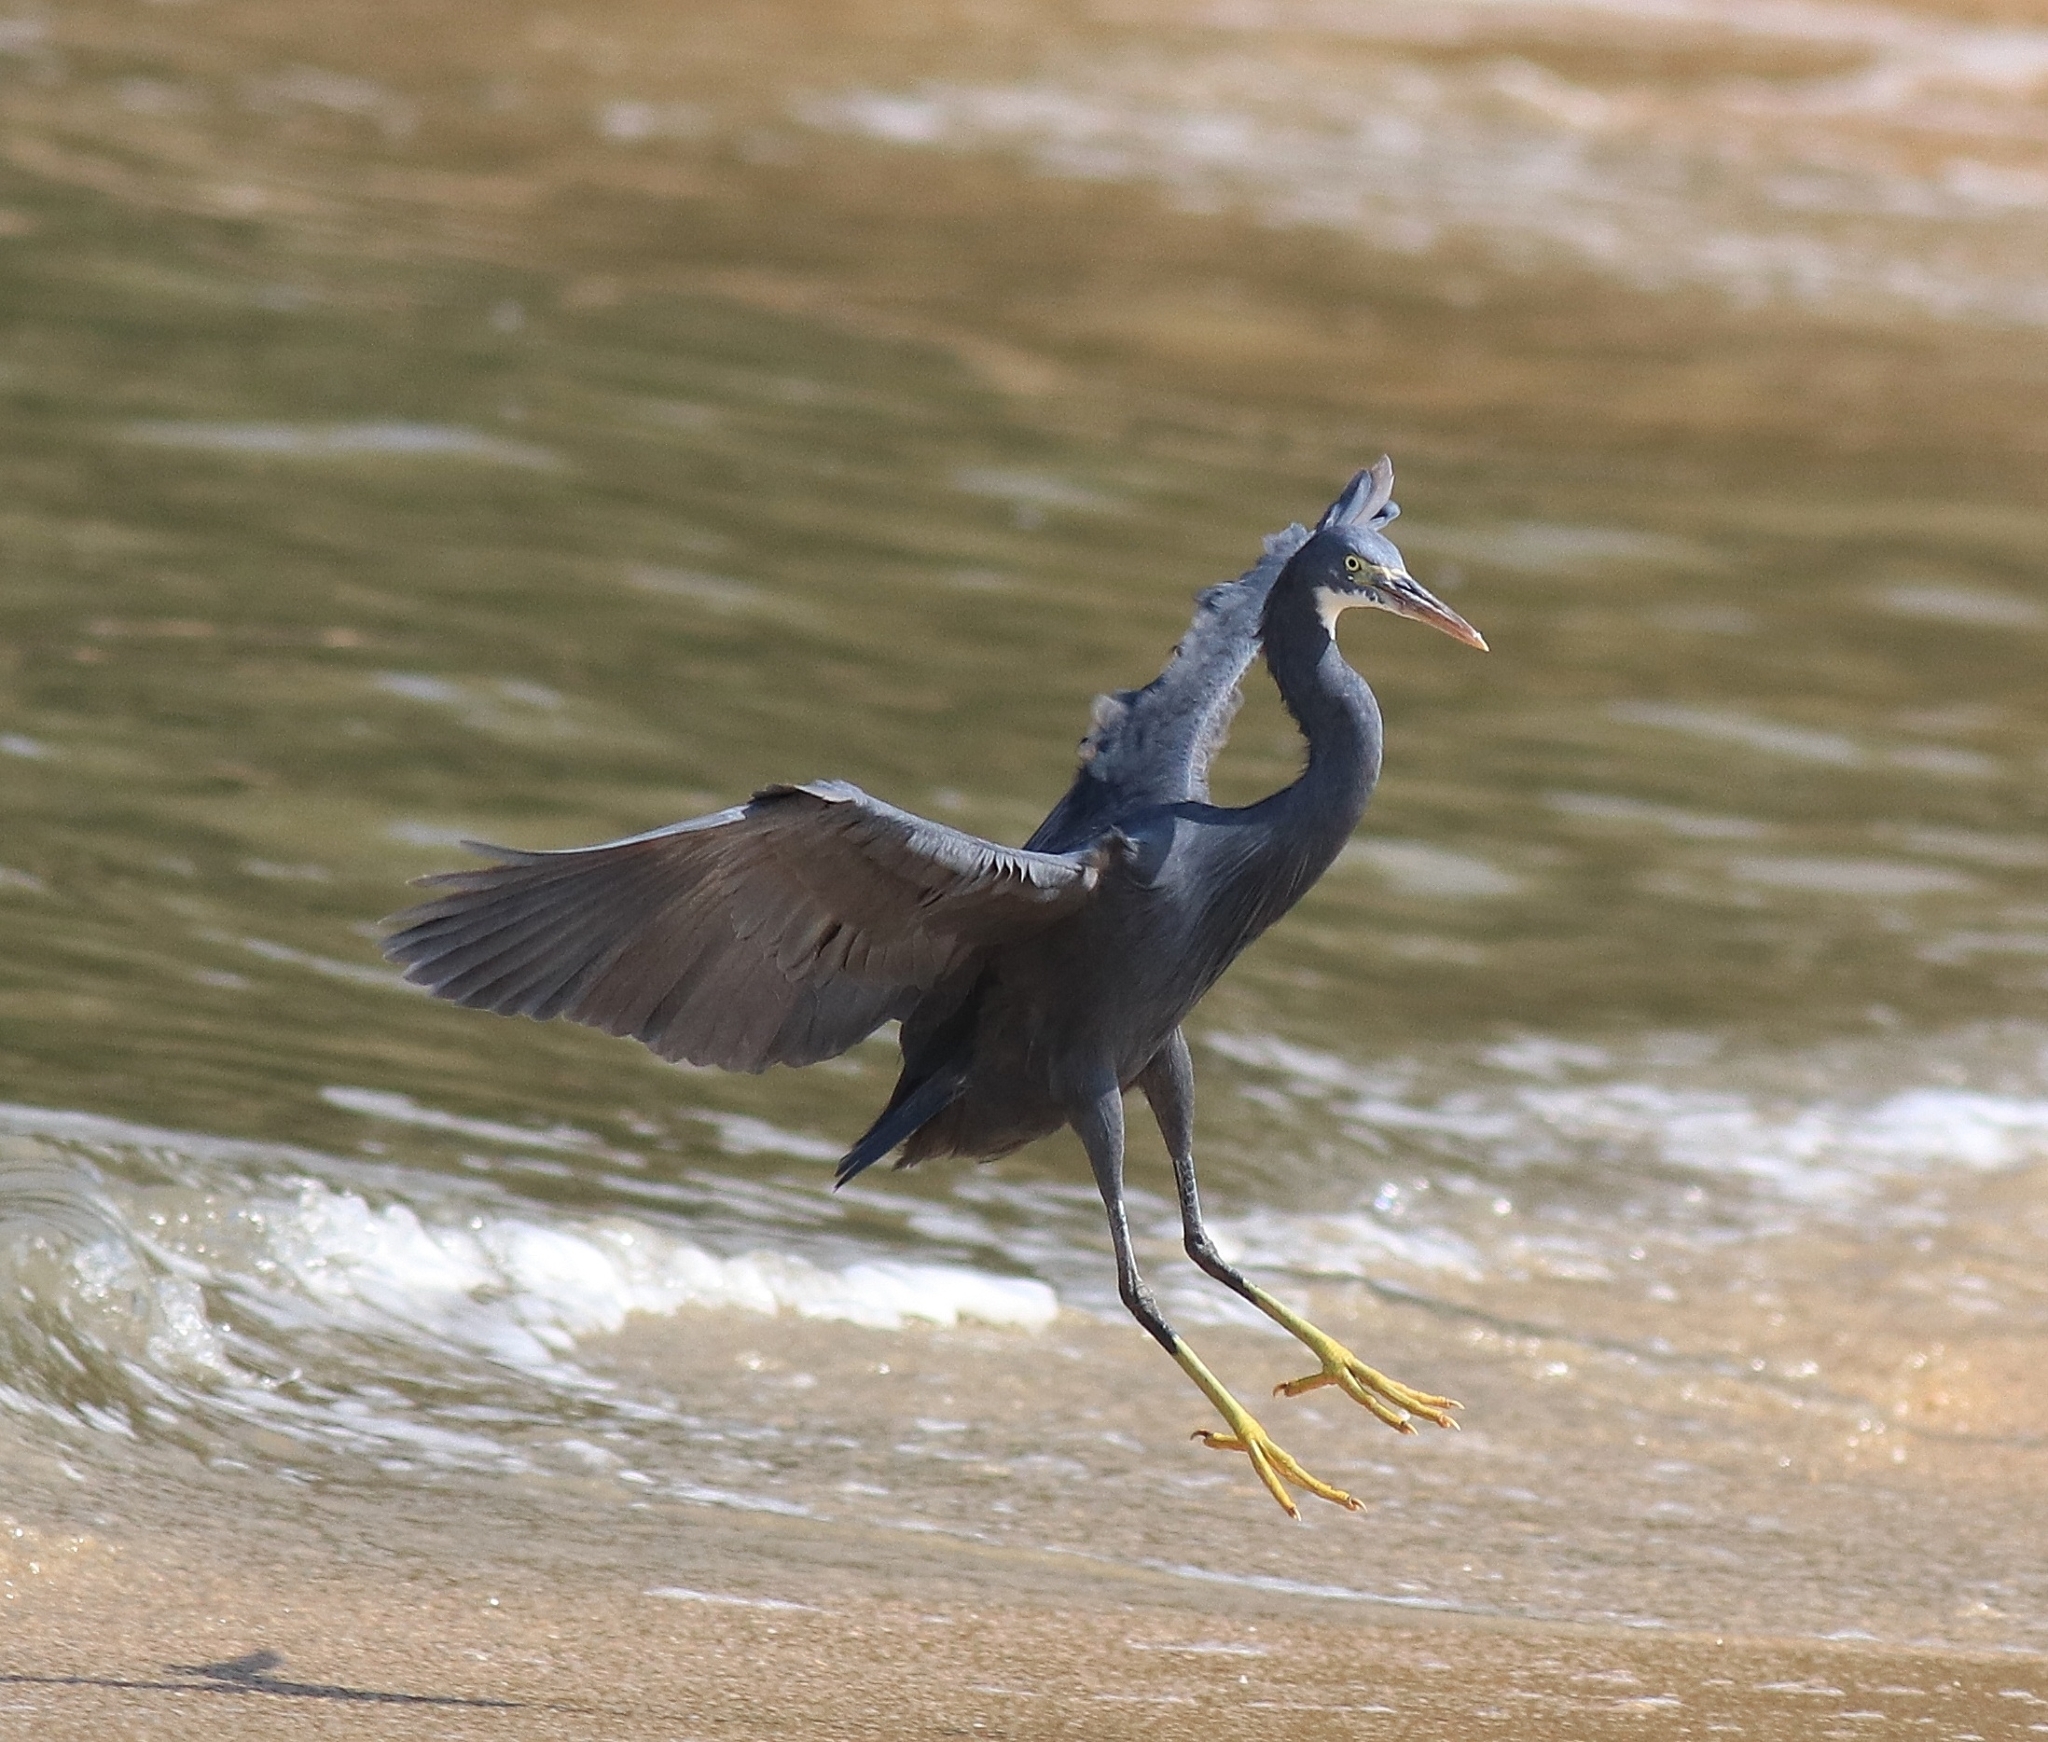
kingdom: Animalia
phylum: Chordata
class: Aves
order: Pelecaniformes
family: Ardeidae
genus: Egretta
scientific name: Egretta gularis
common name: Western reef-heron
